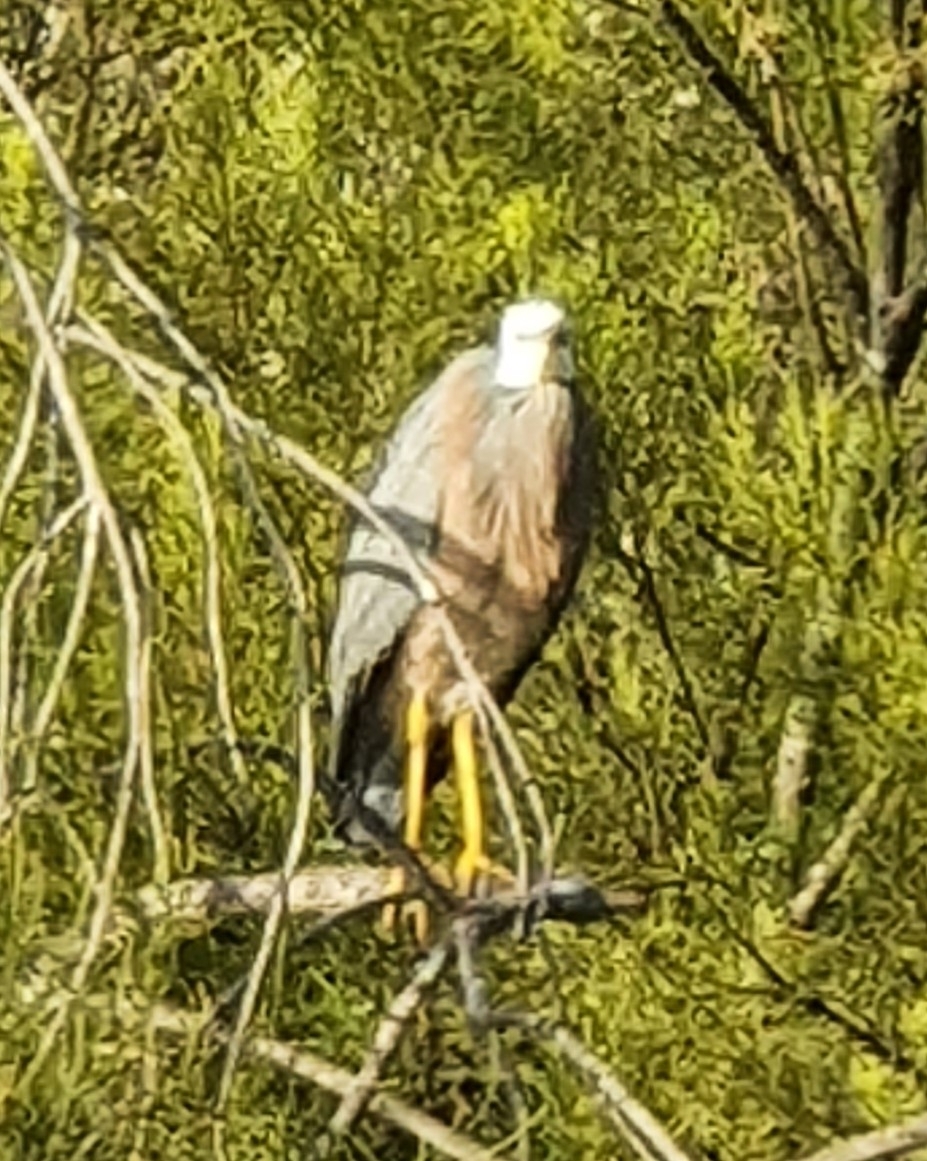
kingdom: Animalia
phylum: Chordata
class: Aves
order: Pelecaniformes
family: Ardeidae
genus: Egretta
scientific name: Egretta novaehollandiae
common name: White-faced heron
